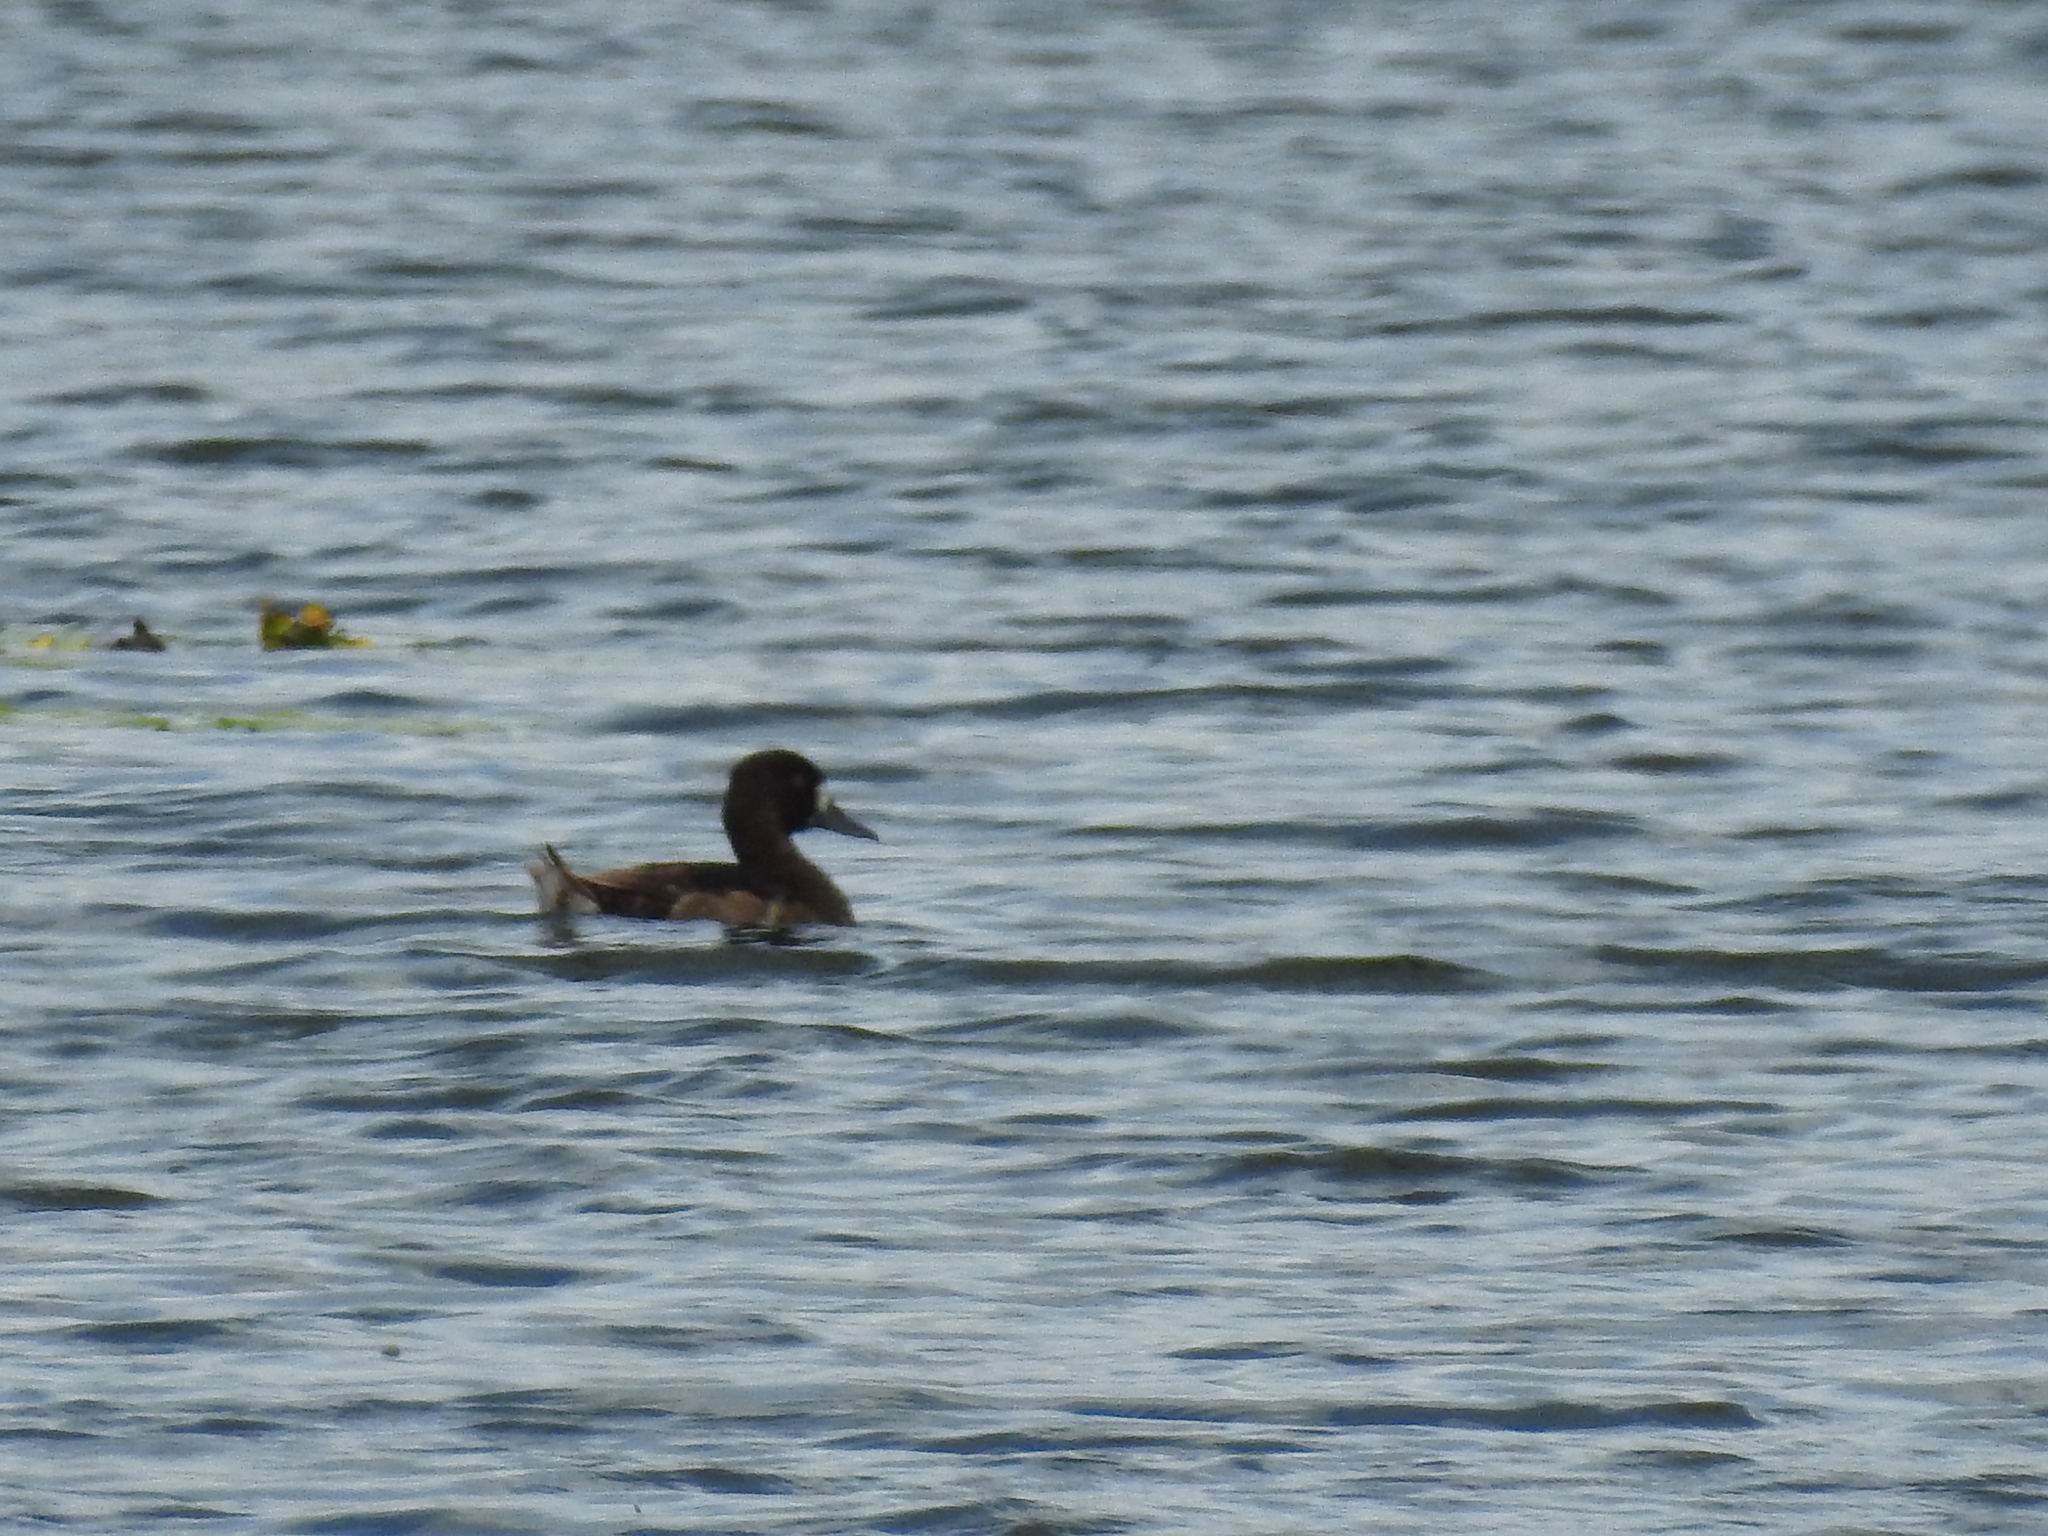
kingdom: Animalia
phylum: Chordata
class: Aves
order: Anseriformes
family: Anatidae
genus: Aythya
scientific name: Aythya fuligula
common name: Tufted duck
